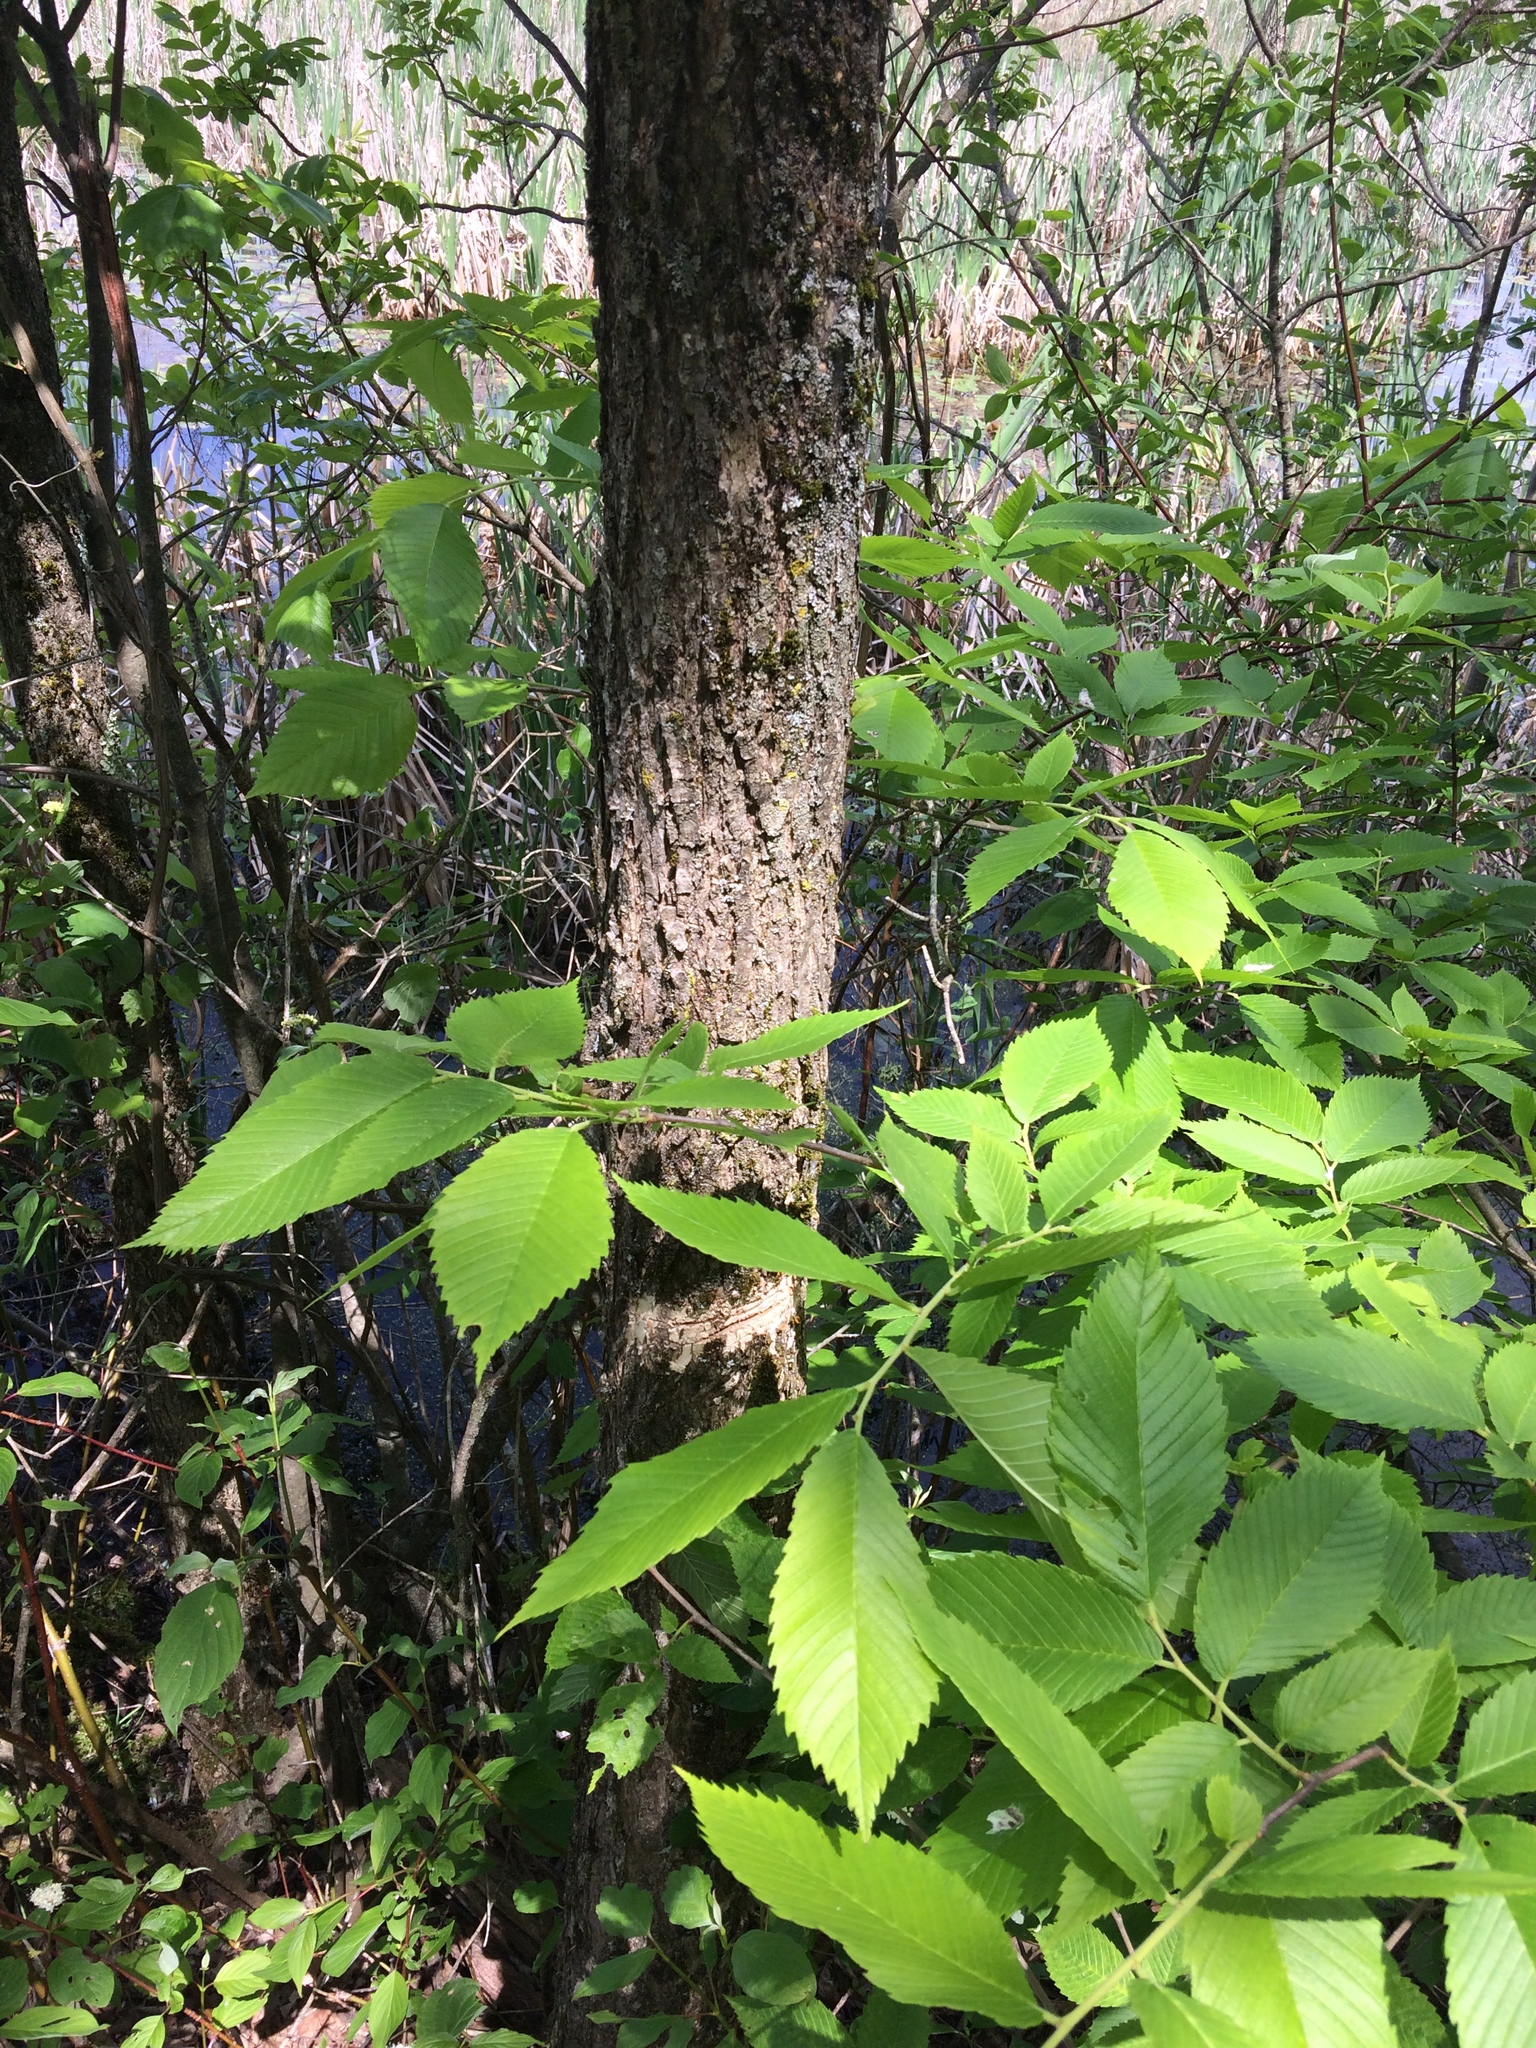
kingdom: Plantae
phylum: Tracheophyta
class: Magnoliopsida
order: Rosales
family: Ulmaceae
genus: Ulmus
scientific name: Ulmus americana
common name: American elm
